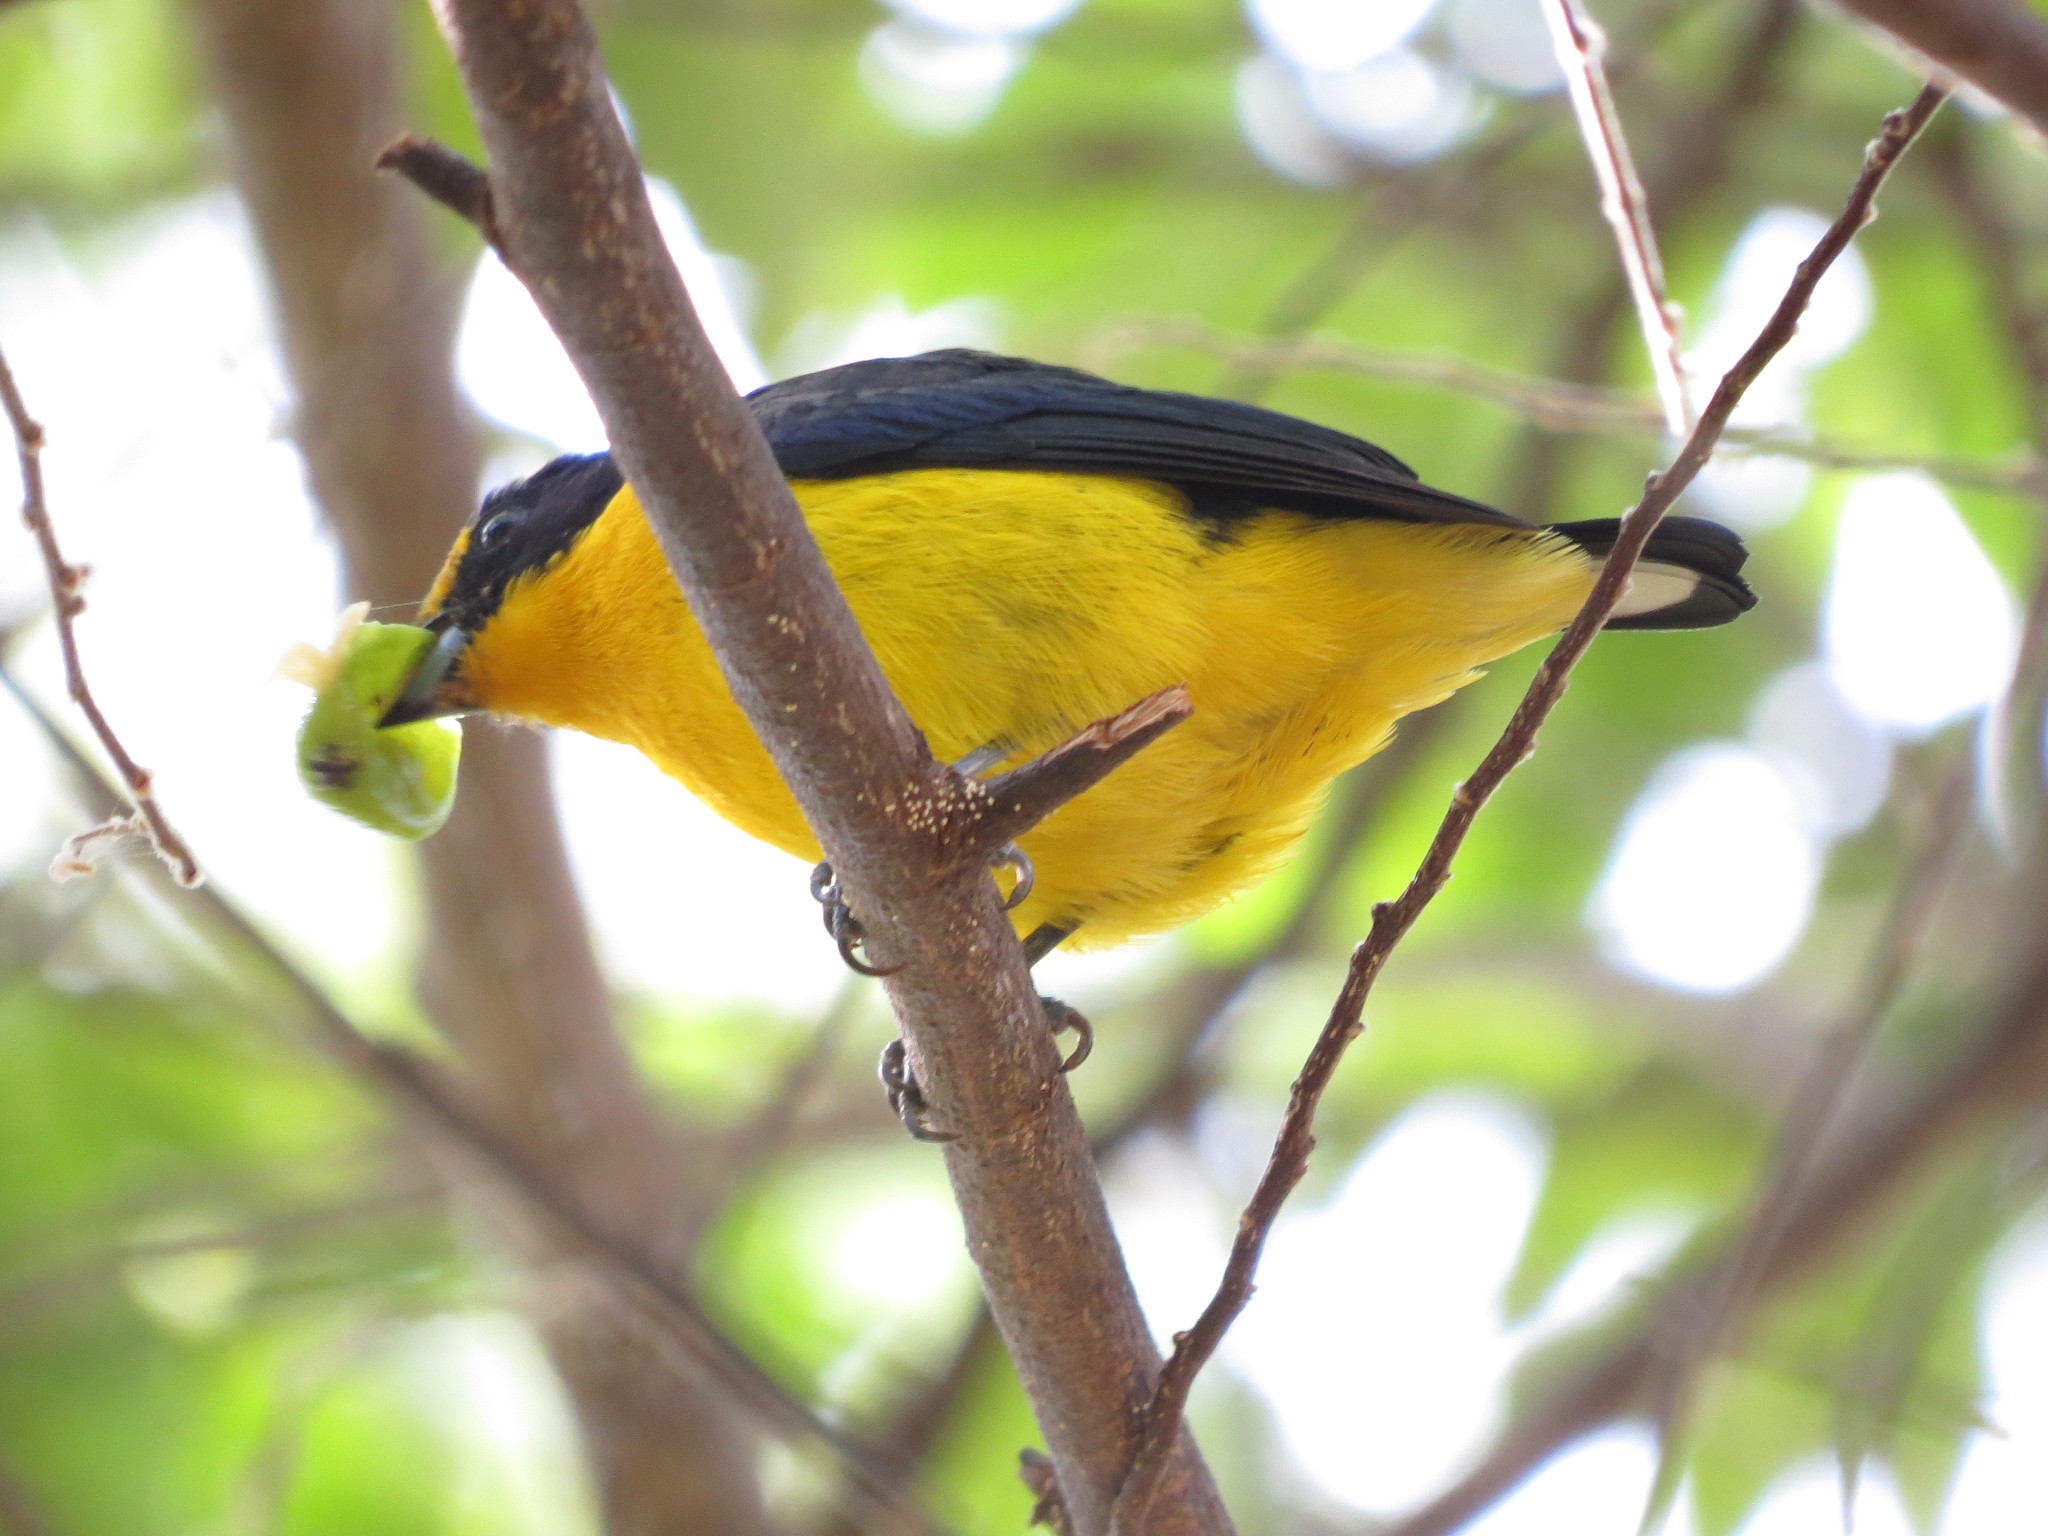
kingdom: Animalia
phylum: Chordata
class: Aves
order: Passeriformes
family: Fringillidae
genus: Euphonia
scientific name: Euphonia violacea
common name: Violaceous euphonia
